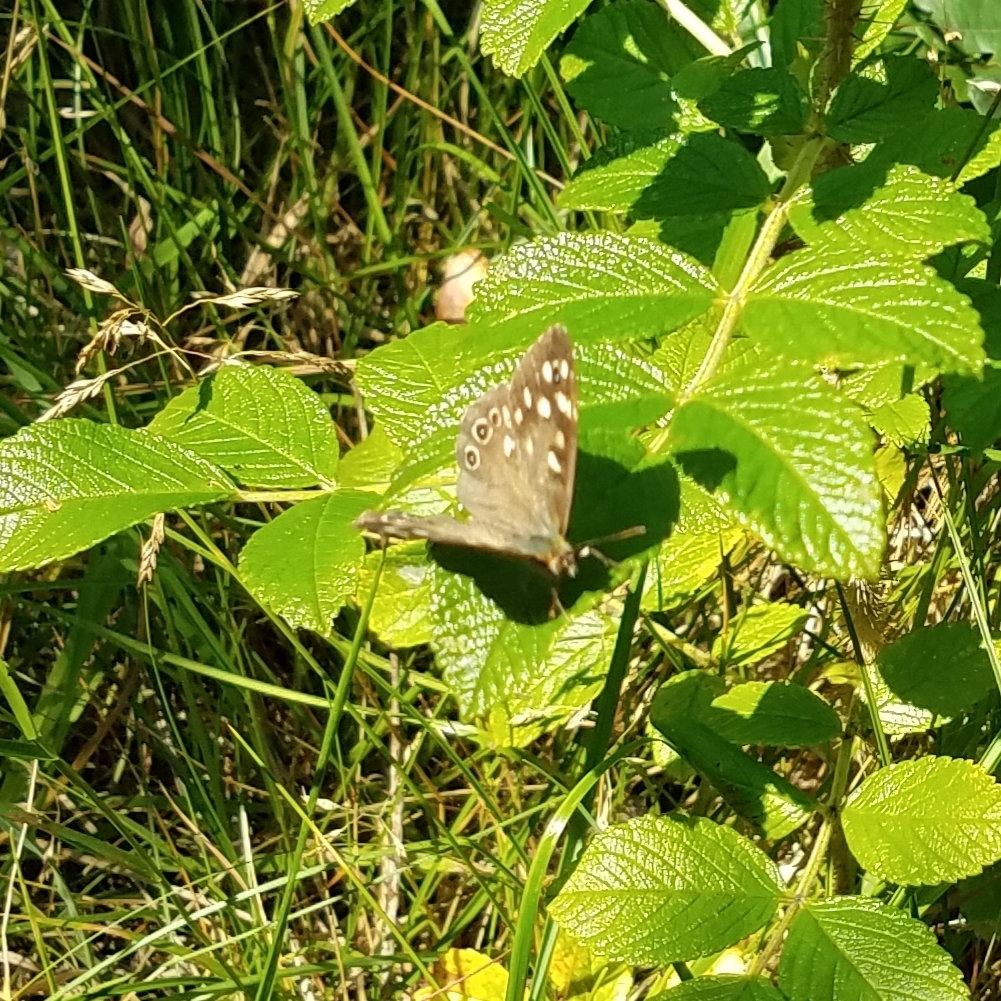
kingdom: Animalia
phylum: Arthropoda
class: Insecta
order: Lepidoptera
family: Nymphalidae
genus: Pararge
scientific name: Pararge aegeria
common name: Speckled wood
